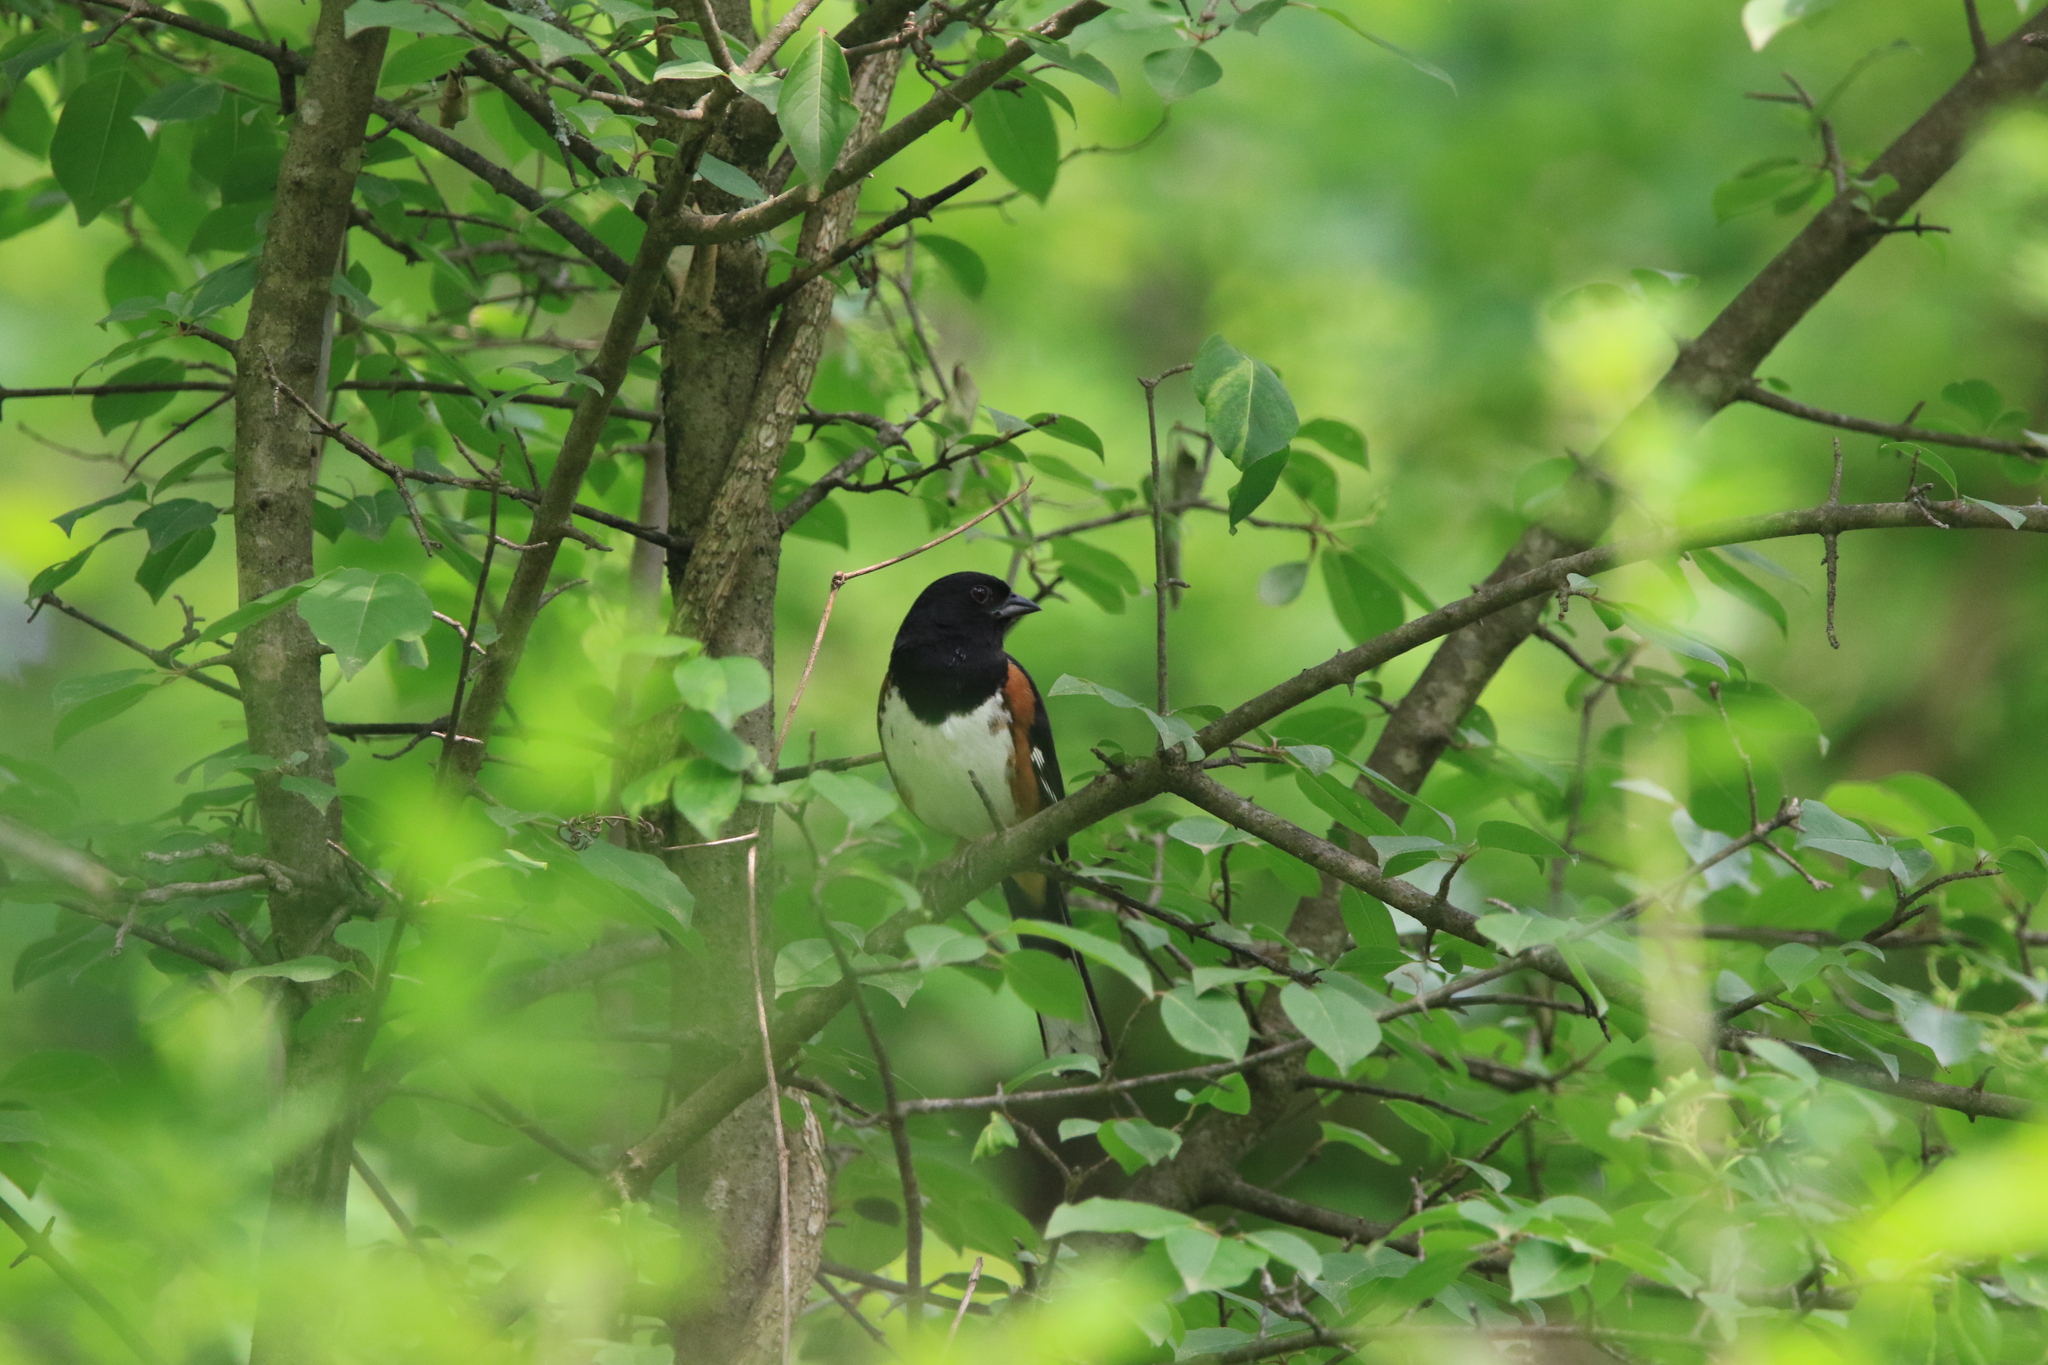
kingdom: Animalia
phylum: Chordata
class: Aves
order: Passeriformes
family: Passerellidae
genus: Pipilo
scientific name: Pipilo erythrophthalmus
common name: Eastern towhee
